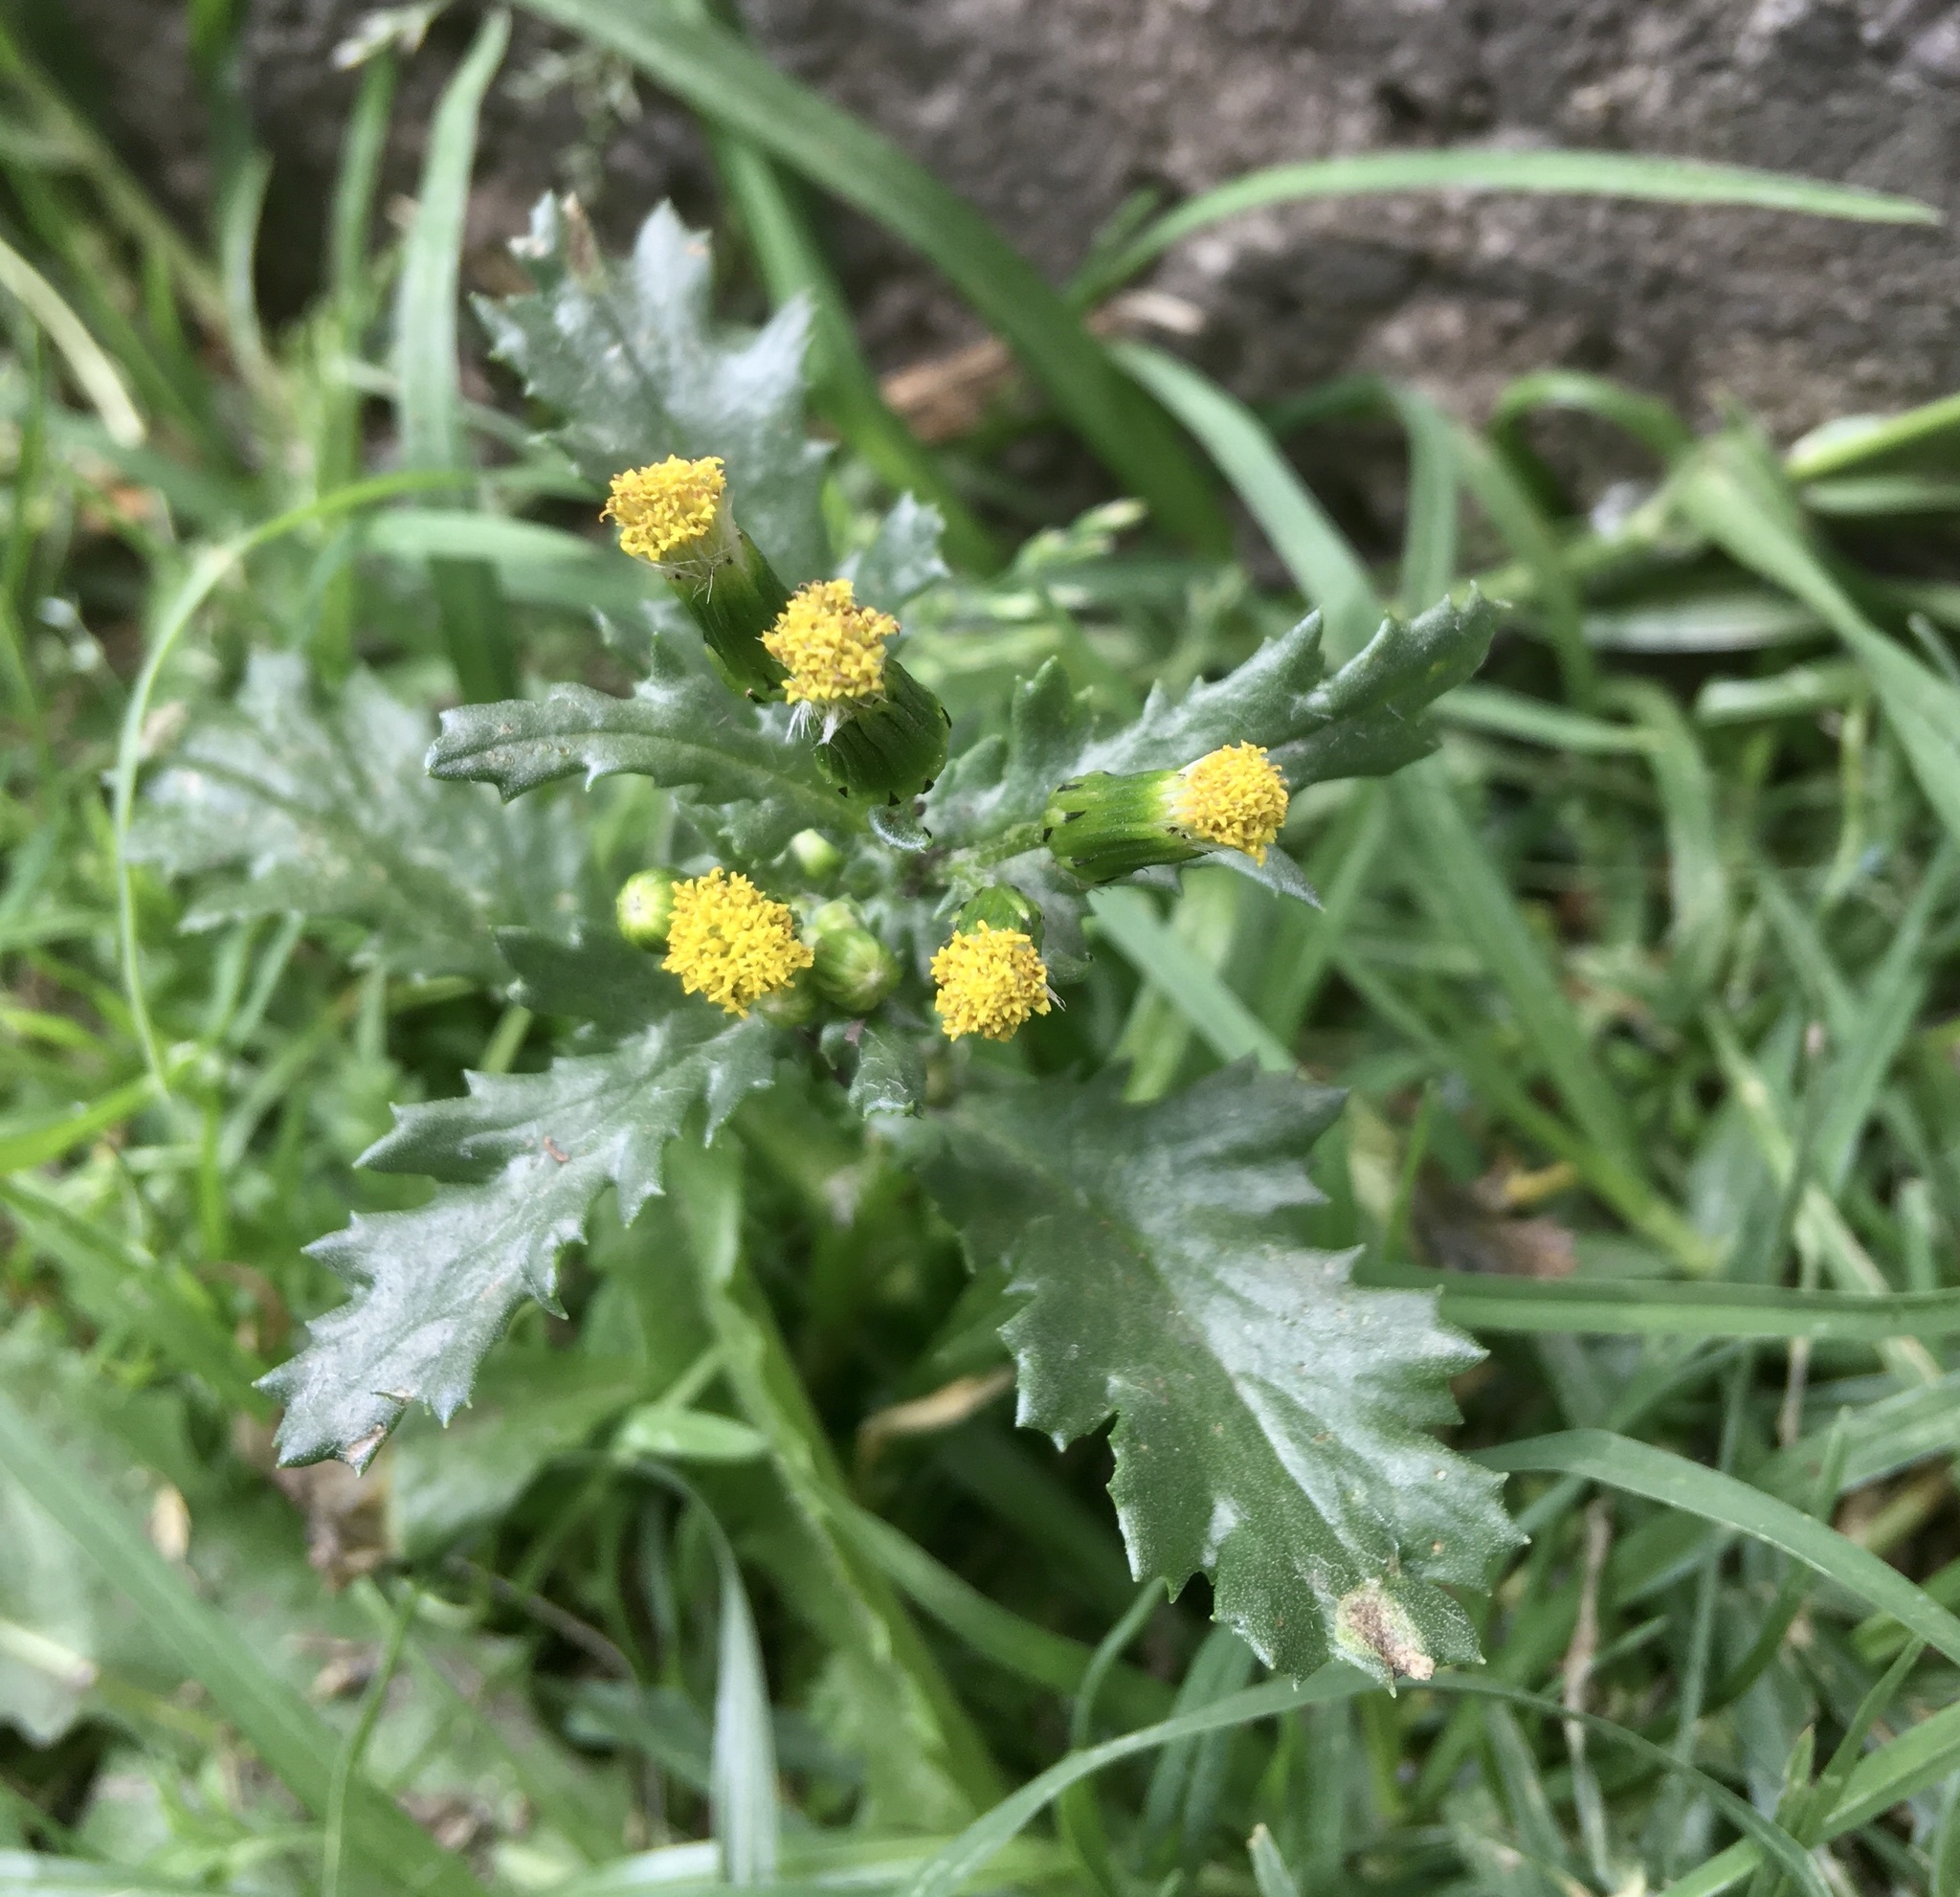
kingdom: Plantae
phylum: Tracheophyta
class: Magnoliopsida
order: Asterales
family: Asteraceae
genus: Senecio
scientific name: Senecio vulgaris
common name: Old-man-in-the-spring
